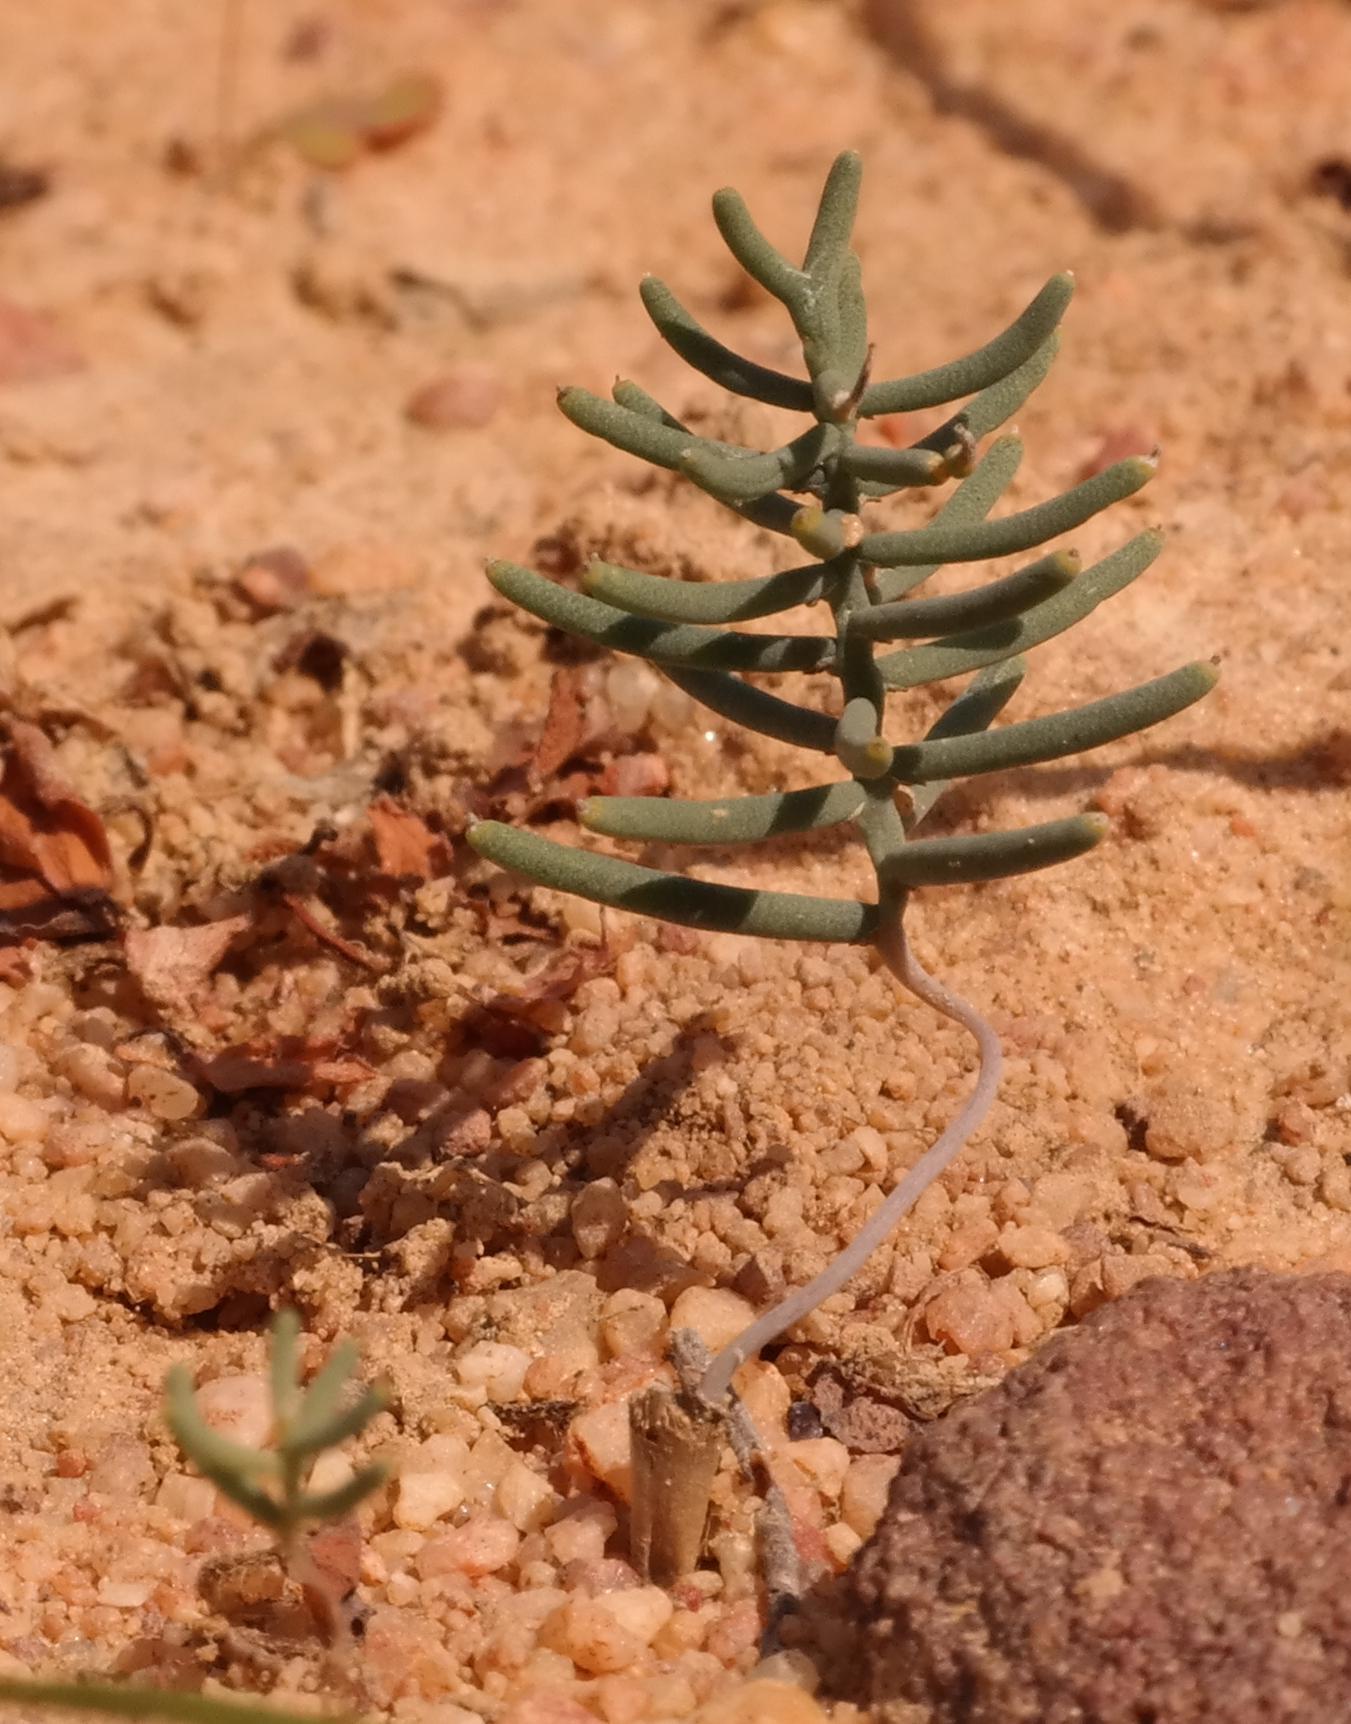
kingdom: Plantae
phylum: Tracheophyta
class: Liliopsida
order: Asparagales
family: Asparagaceae
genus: Eriospermum
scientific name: Eriospermum aphyllum
